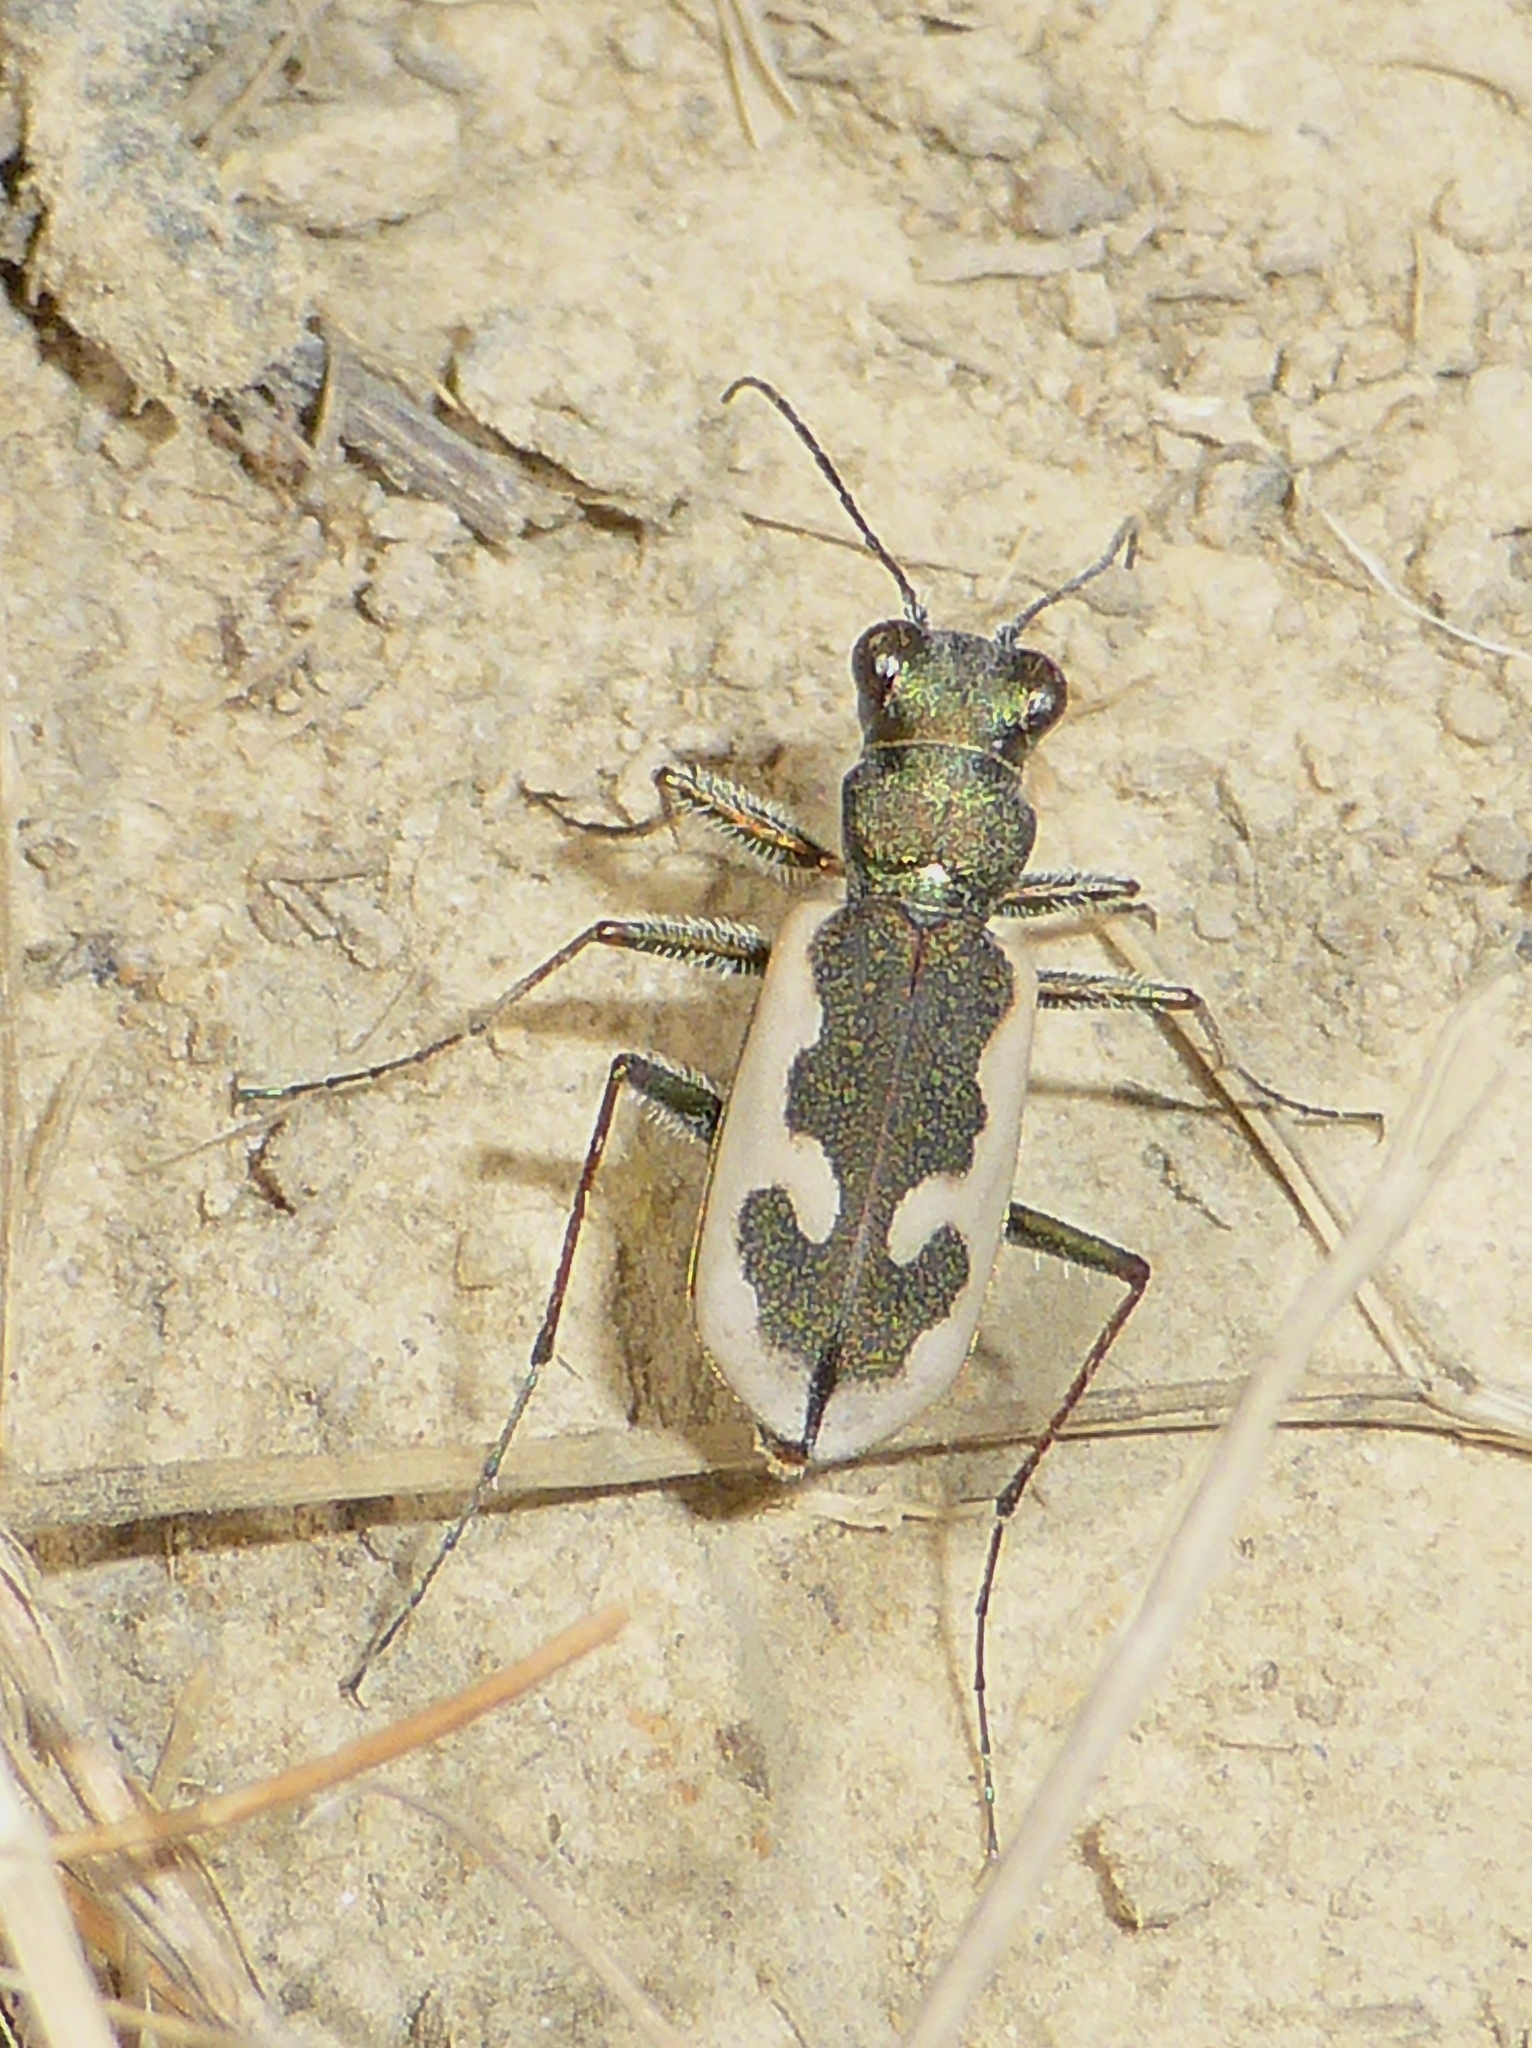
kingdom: Animalia
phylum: Arthropoda
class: Insecta
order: Coleoptera
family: Carabidae
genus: Neocicindela
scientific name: Neocicindela latecincta
